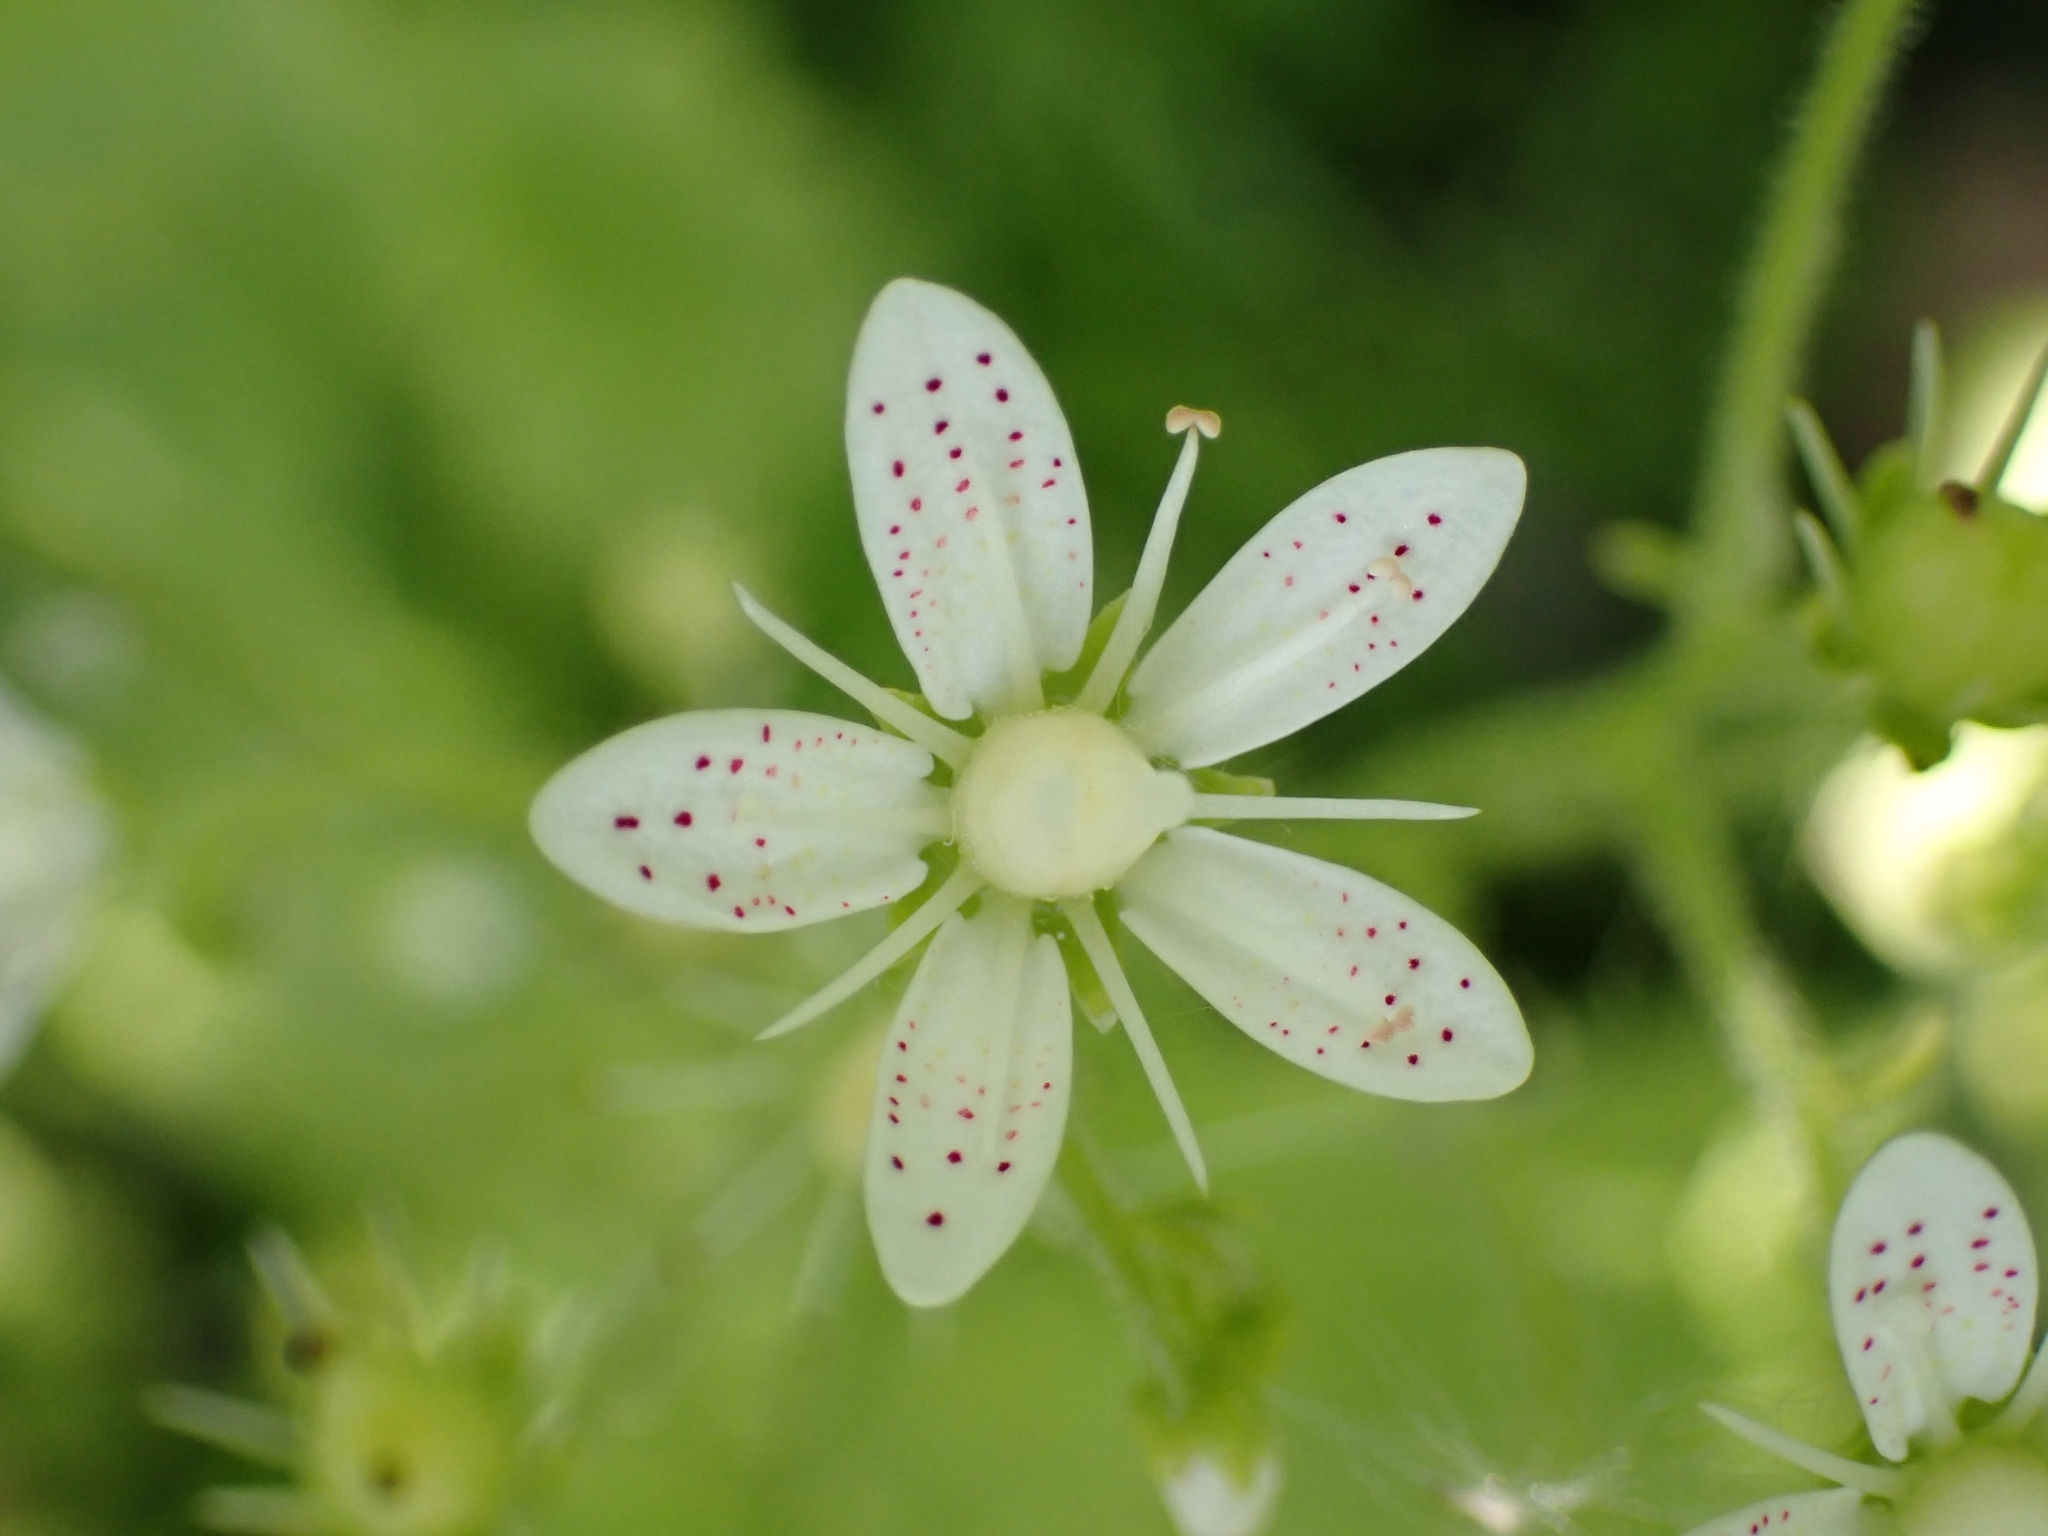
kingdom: Plantae
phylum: Tracheophyta
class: Magnoliopsida
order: Saxifragales
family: Saxifragaceae
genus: Saxifraga
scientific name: Saxifraga rotundifolia
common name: Round-leaved saxifrage
